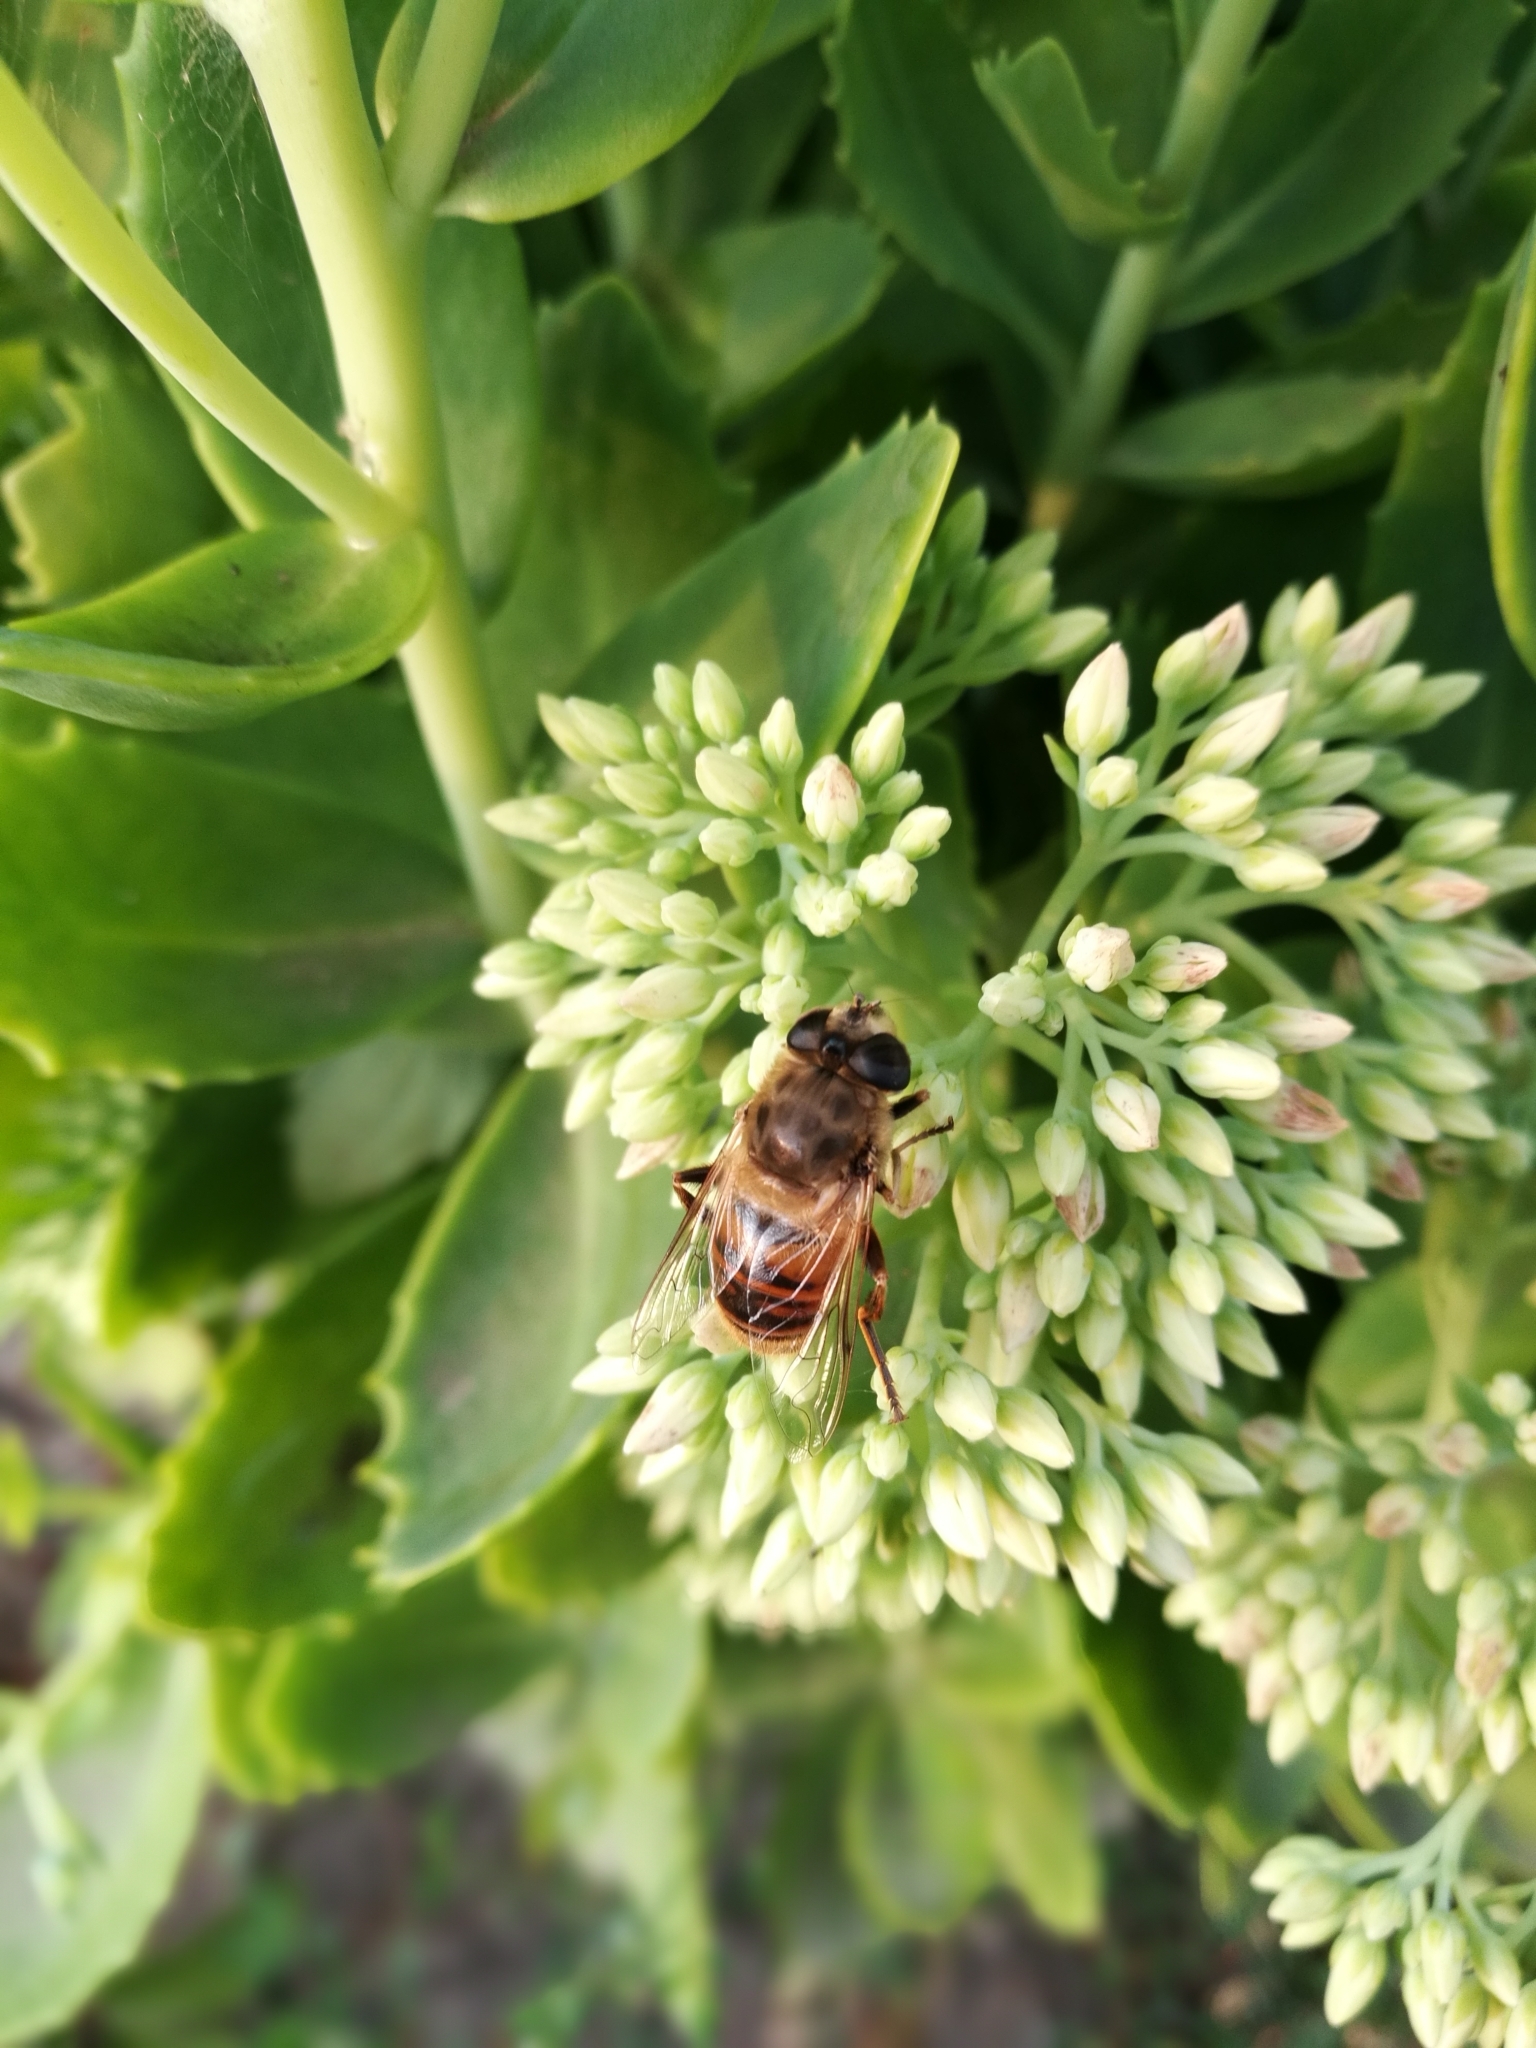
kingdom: Animalia
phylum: Arthropoda
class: Insecta
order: Diptera
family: Syrphidae
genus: Eristalis
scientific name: Eristalis tenax
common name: Drone fly
